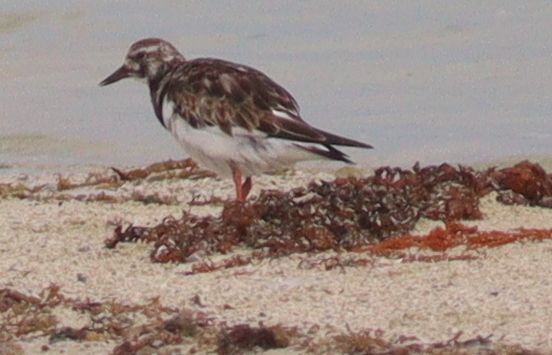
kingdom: Animalia
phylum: Chordata
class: Aves
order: Charadriiformes
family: Scolopacidae
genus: Arenaria
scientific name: Arenaria interpres
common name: Ruddy turnstone
